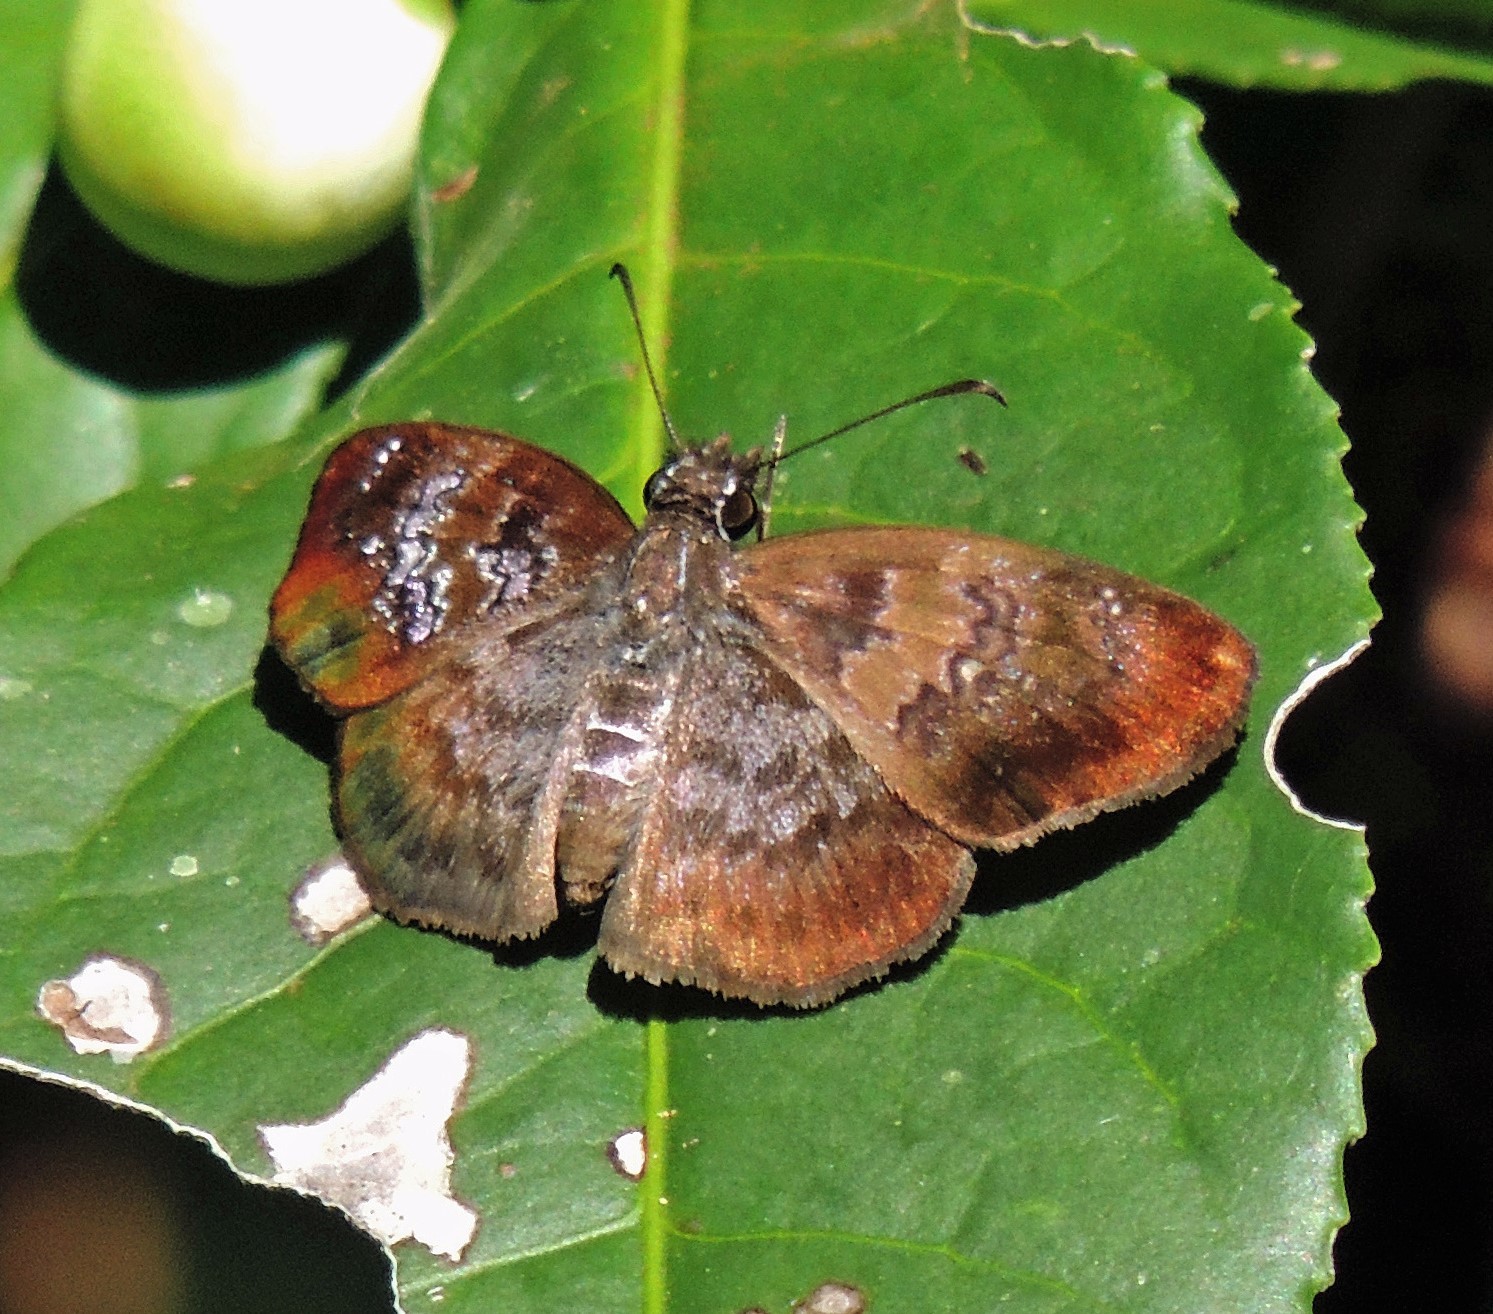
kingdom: Animalia
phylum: Arthropoda
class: Insecta
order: Lepidoptera
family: Hesperiidae
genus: Sophista
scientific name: Sophista bifasciata
